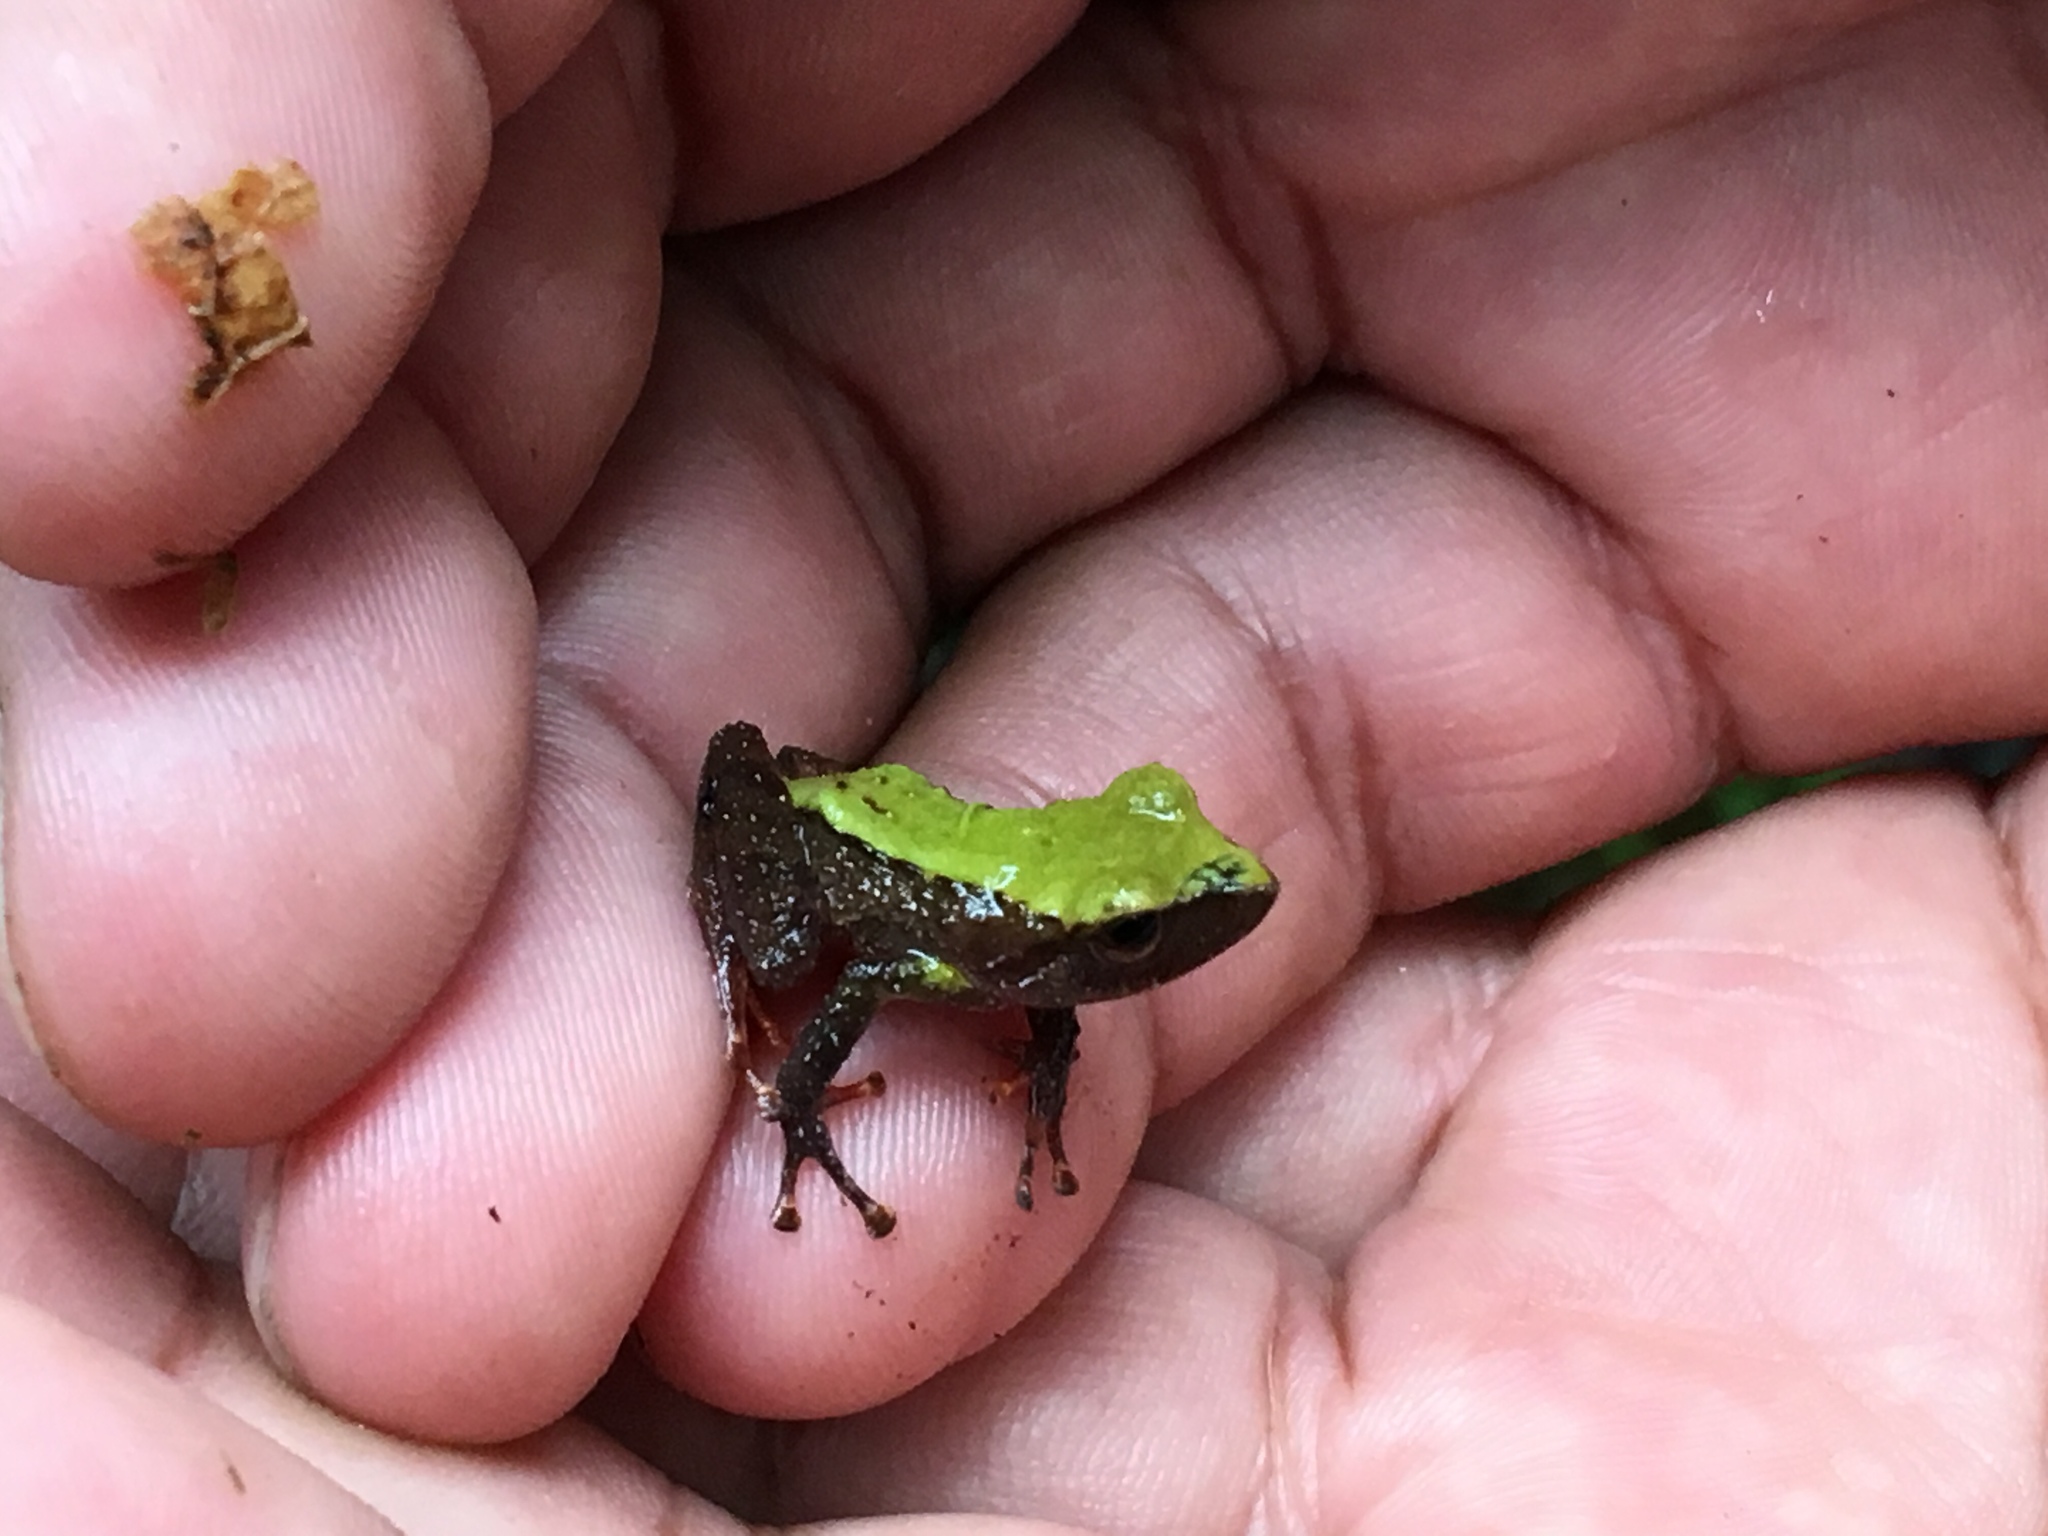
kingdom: Animalia
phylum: Chordata
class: Amphibia
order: Anura
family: Craugastoridae
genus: Pristimantis
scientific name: Pristimantis acerus
